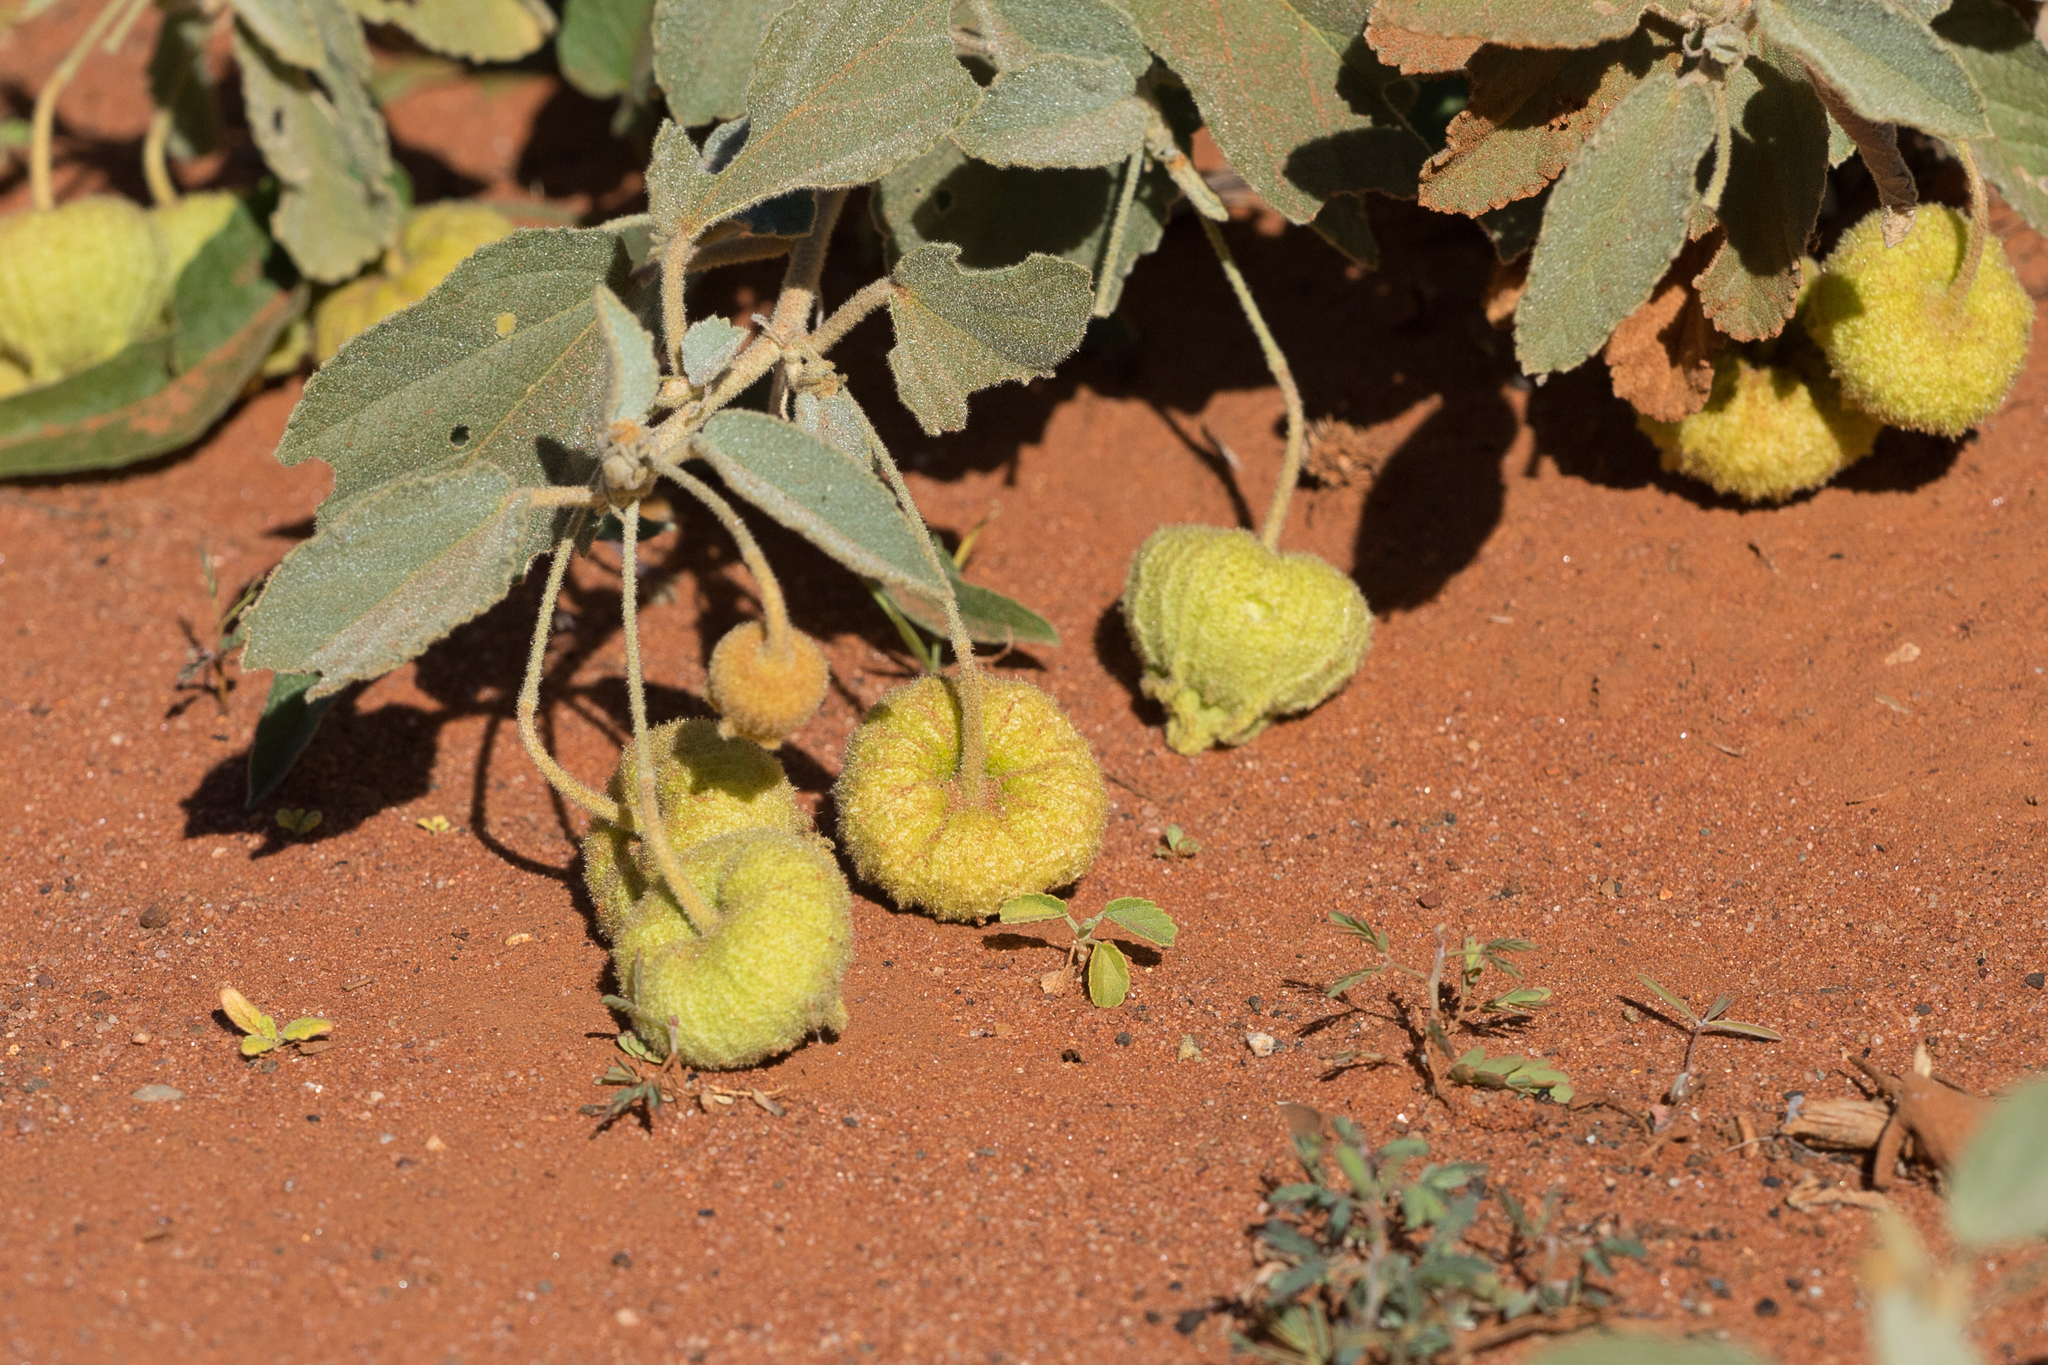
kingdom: Plantae
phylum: Tracheophyta
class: Magnoliopsida
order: Malvales
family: Malvaceae
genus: Sida
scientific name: Sida platycalyx
